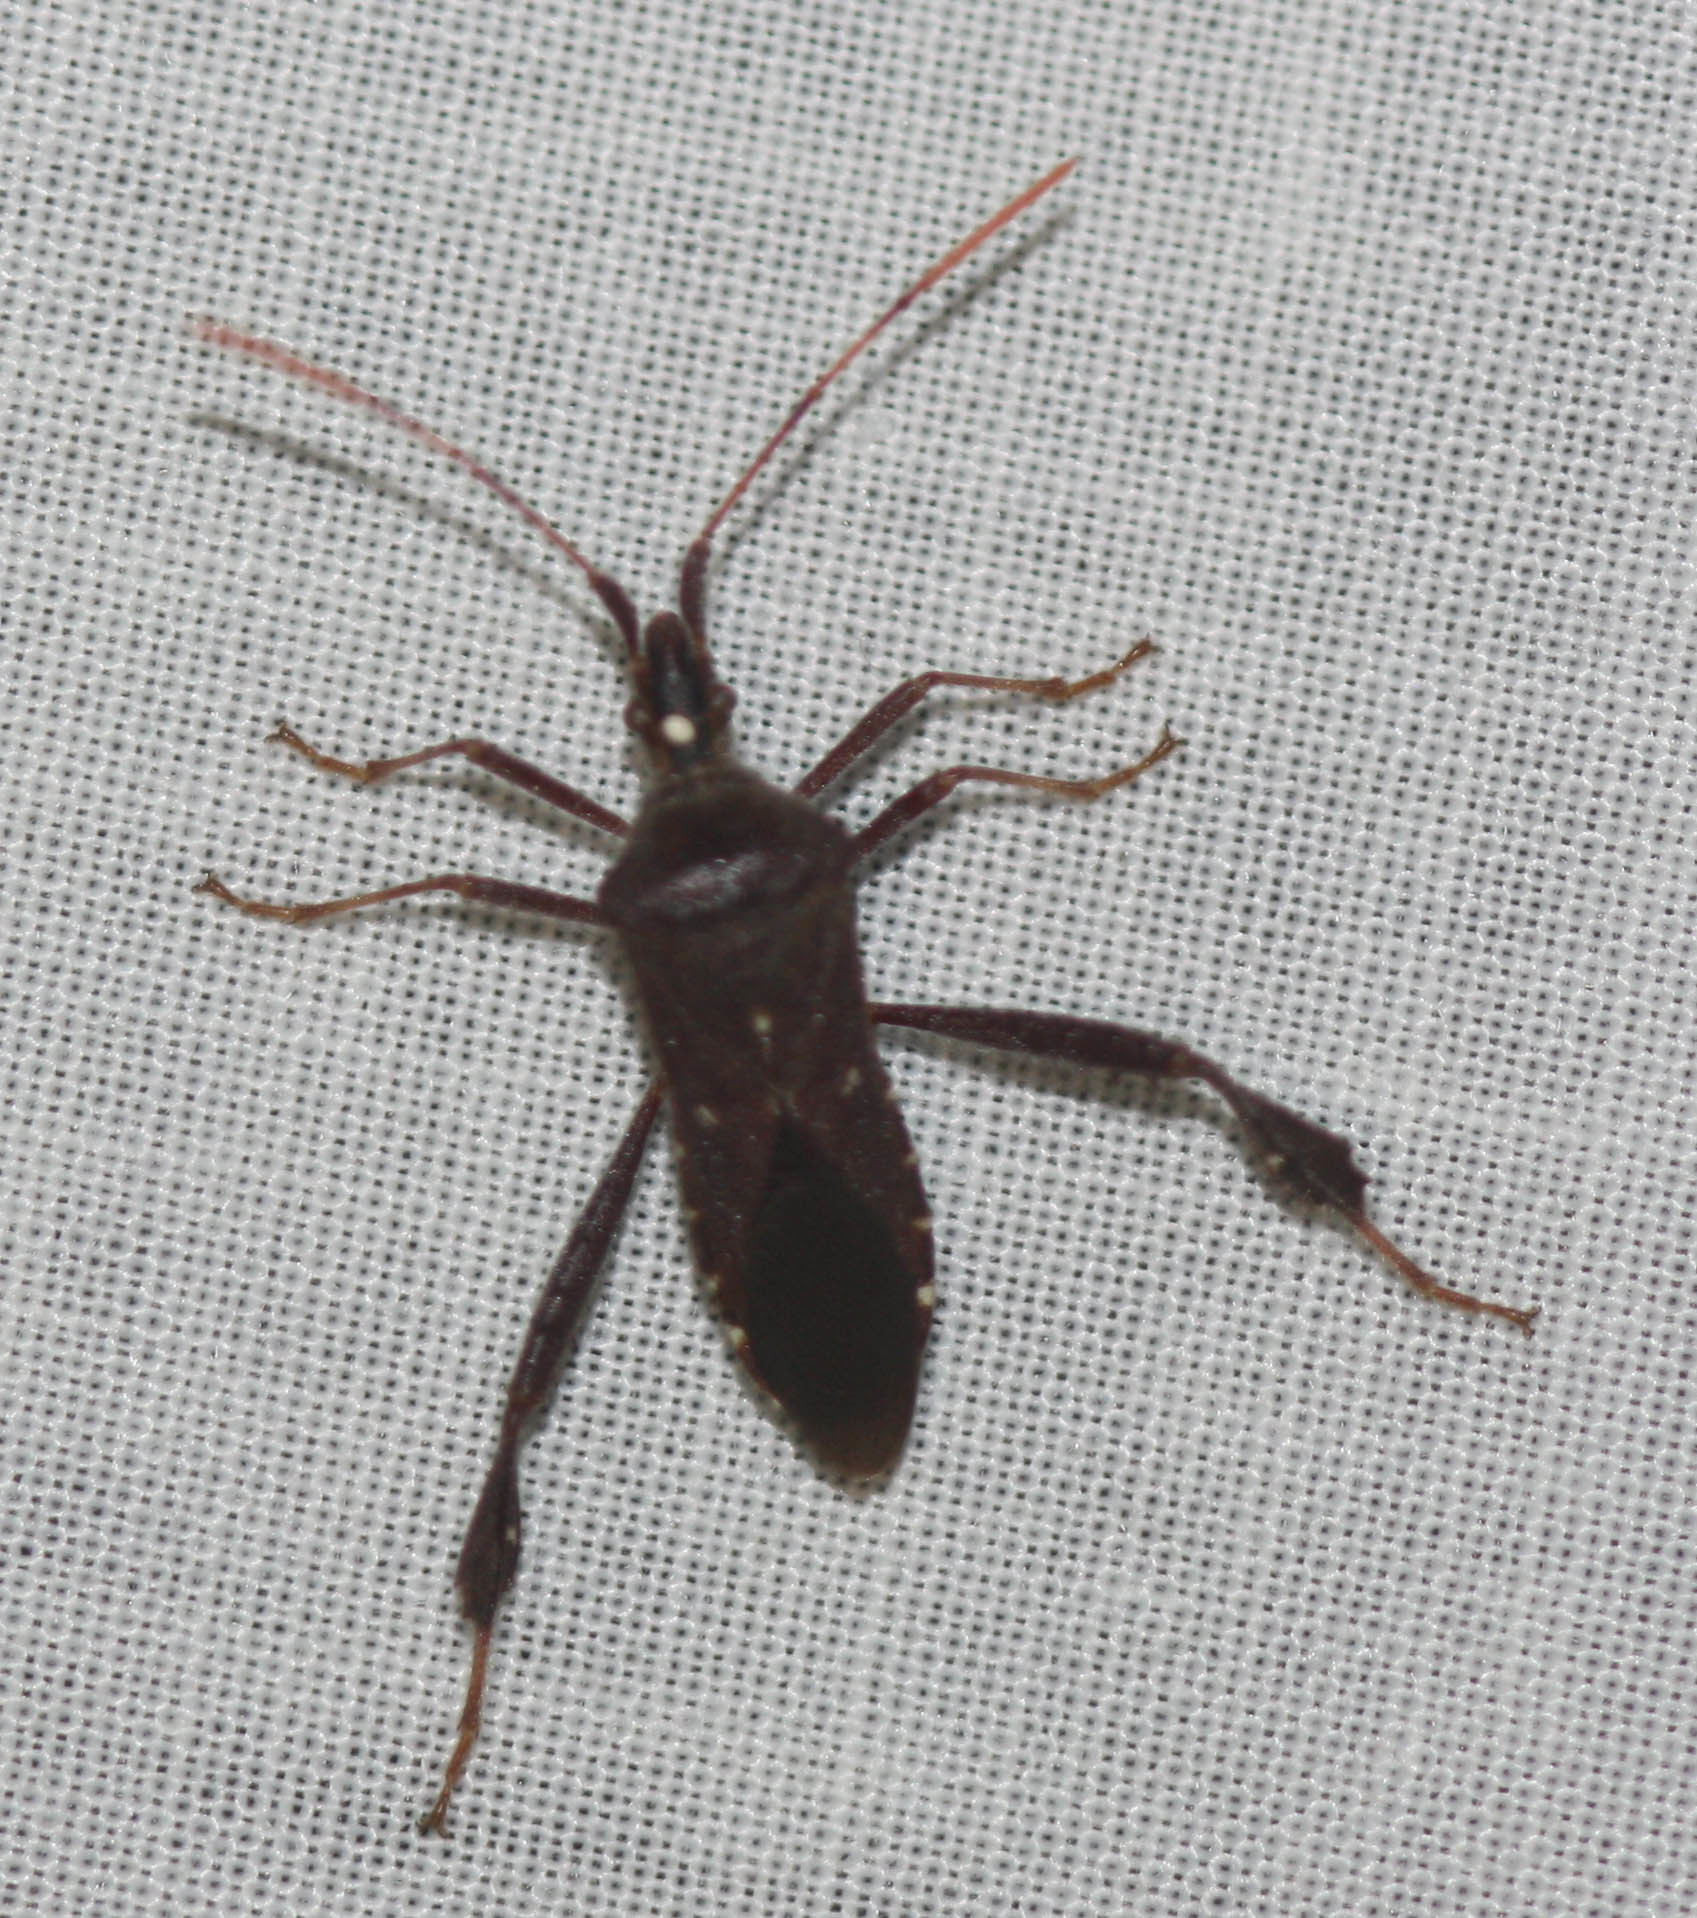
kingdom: Animalia
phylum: Arthropoda
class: Insecta
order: Hemiptera
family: Coreidae
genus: Leptoglossus
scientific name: Leptoglossus oppositus
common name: Northern leaf-footed bug
